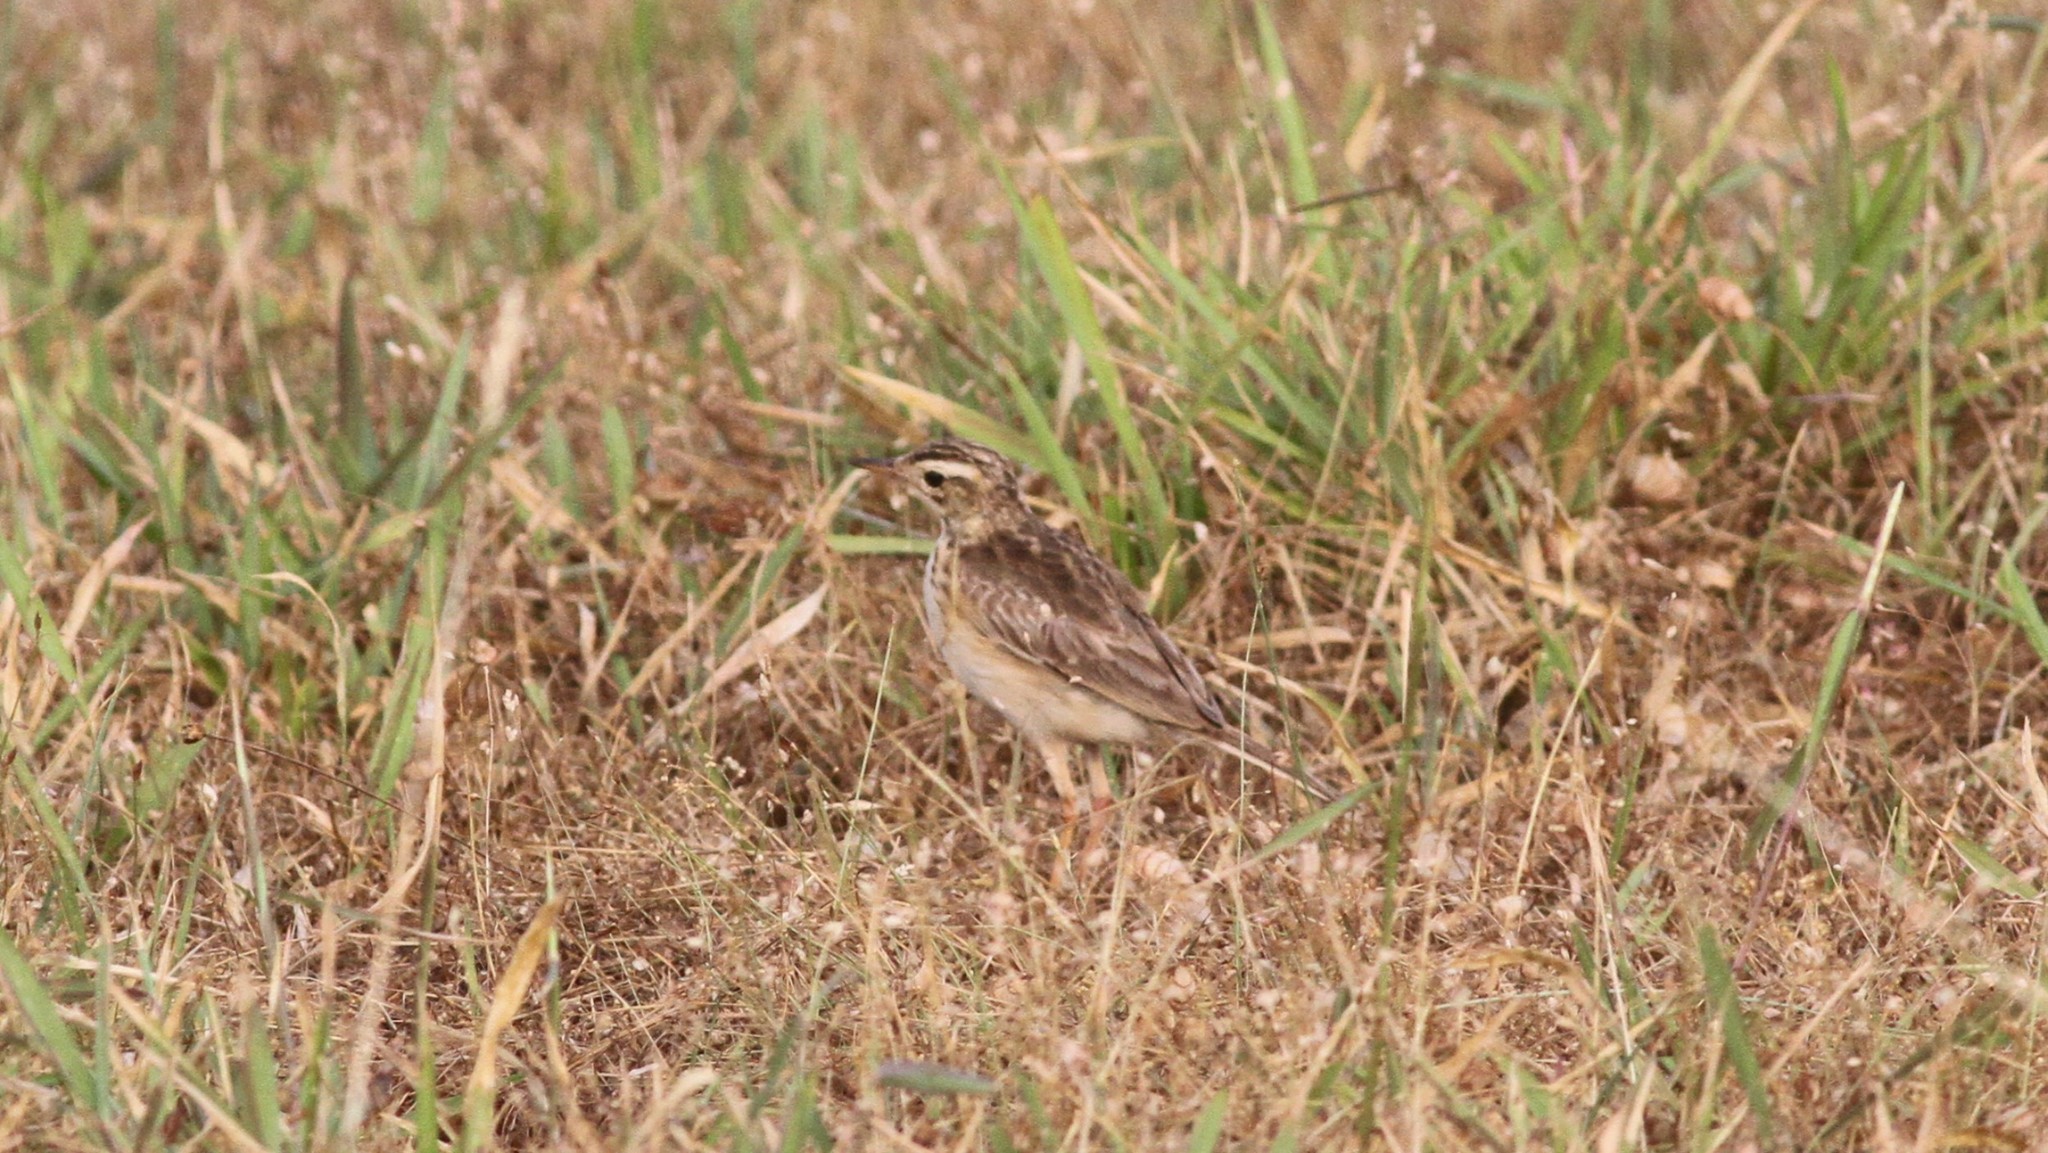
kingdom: Animalia
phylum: Chordata
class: Aves
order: Passeriformes
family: Motacillidae
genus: Anthus
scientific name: Anthus rufulus
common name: Paddyfield pipit
